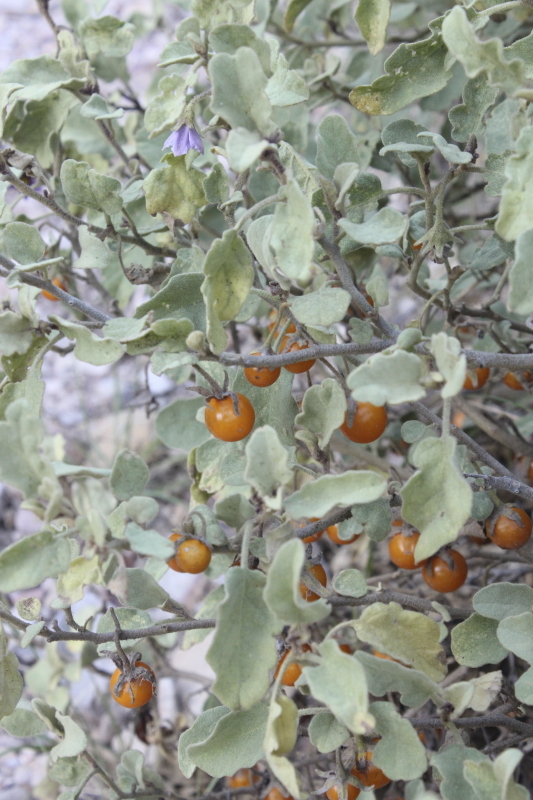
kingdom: Plantae
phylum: Tracheophyta
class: Magnoliopsida
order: Solanales
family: Solanaceae
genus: Solanum
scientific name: Solanum tomentosum
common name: Wild aubergine
